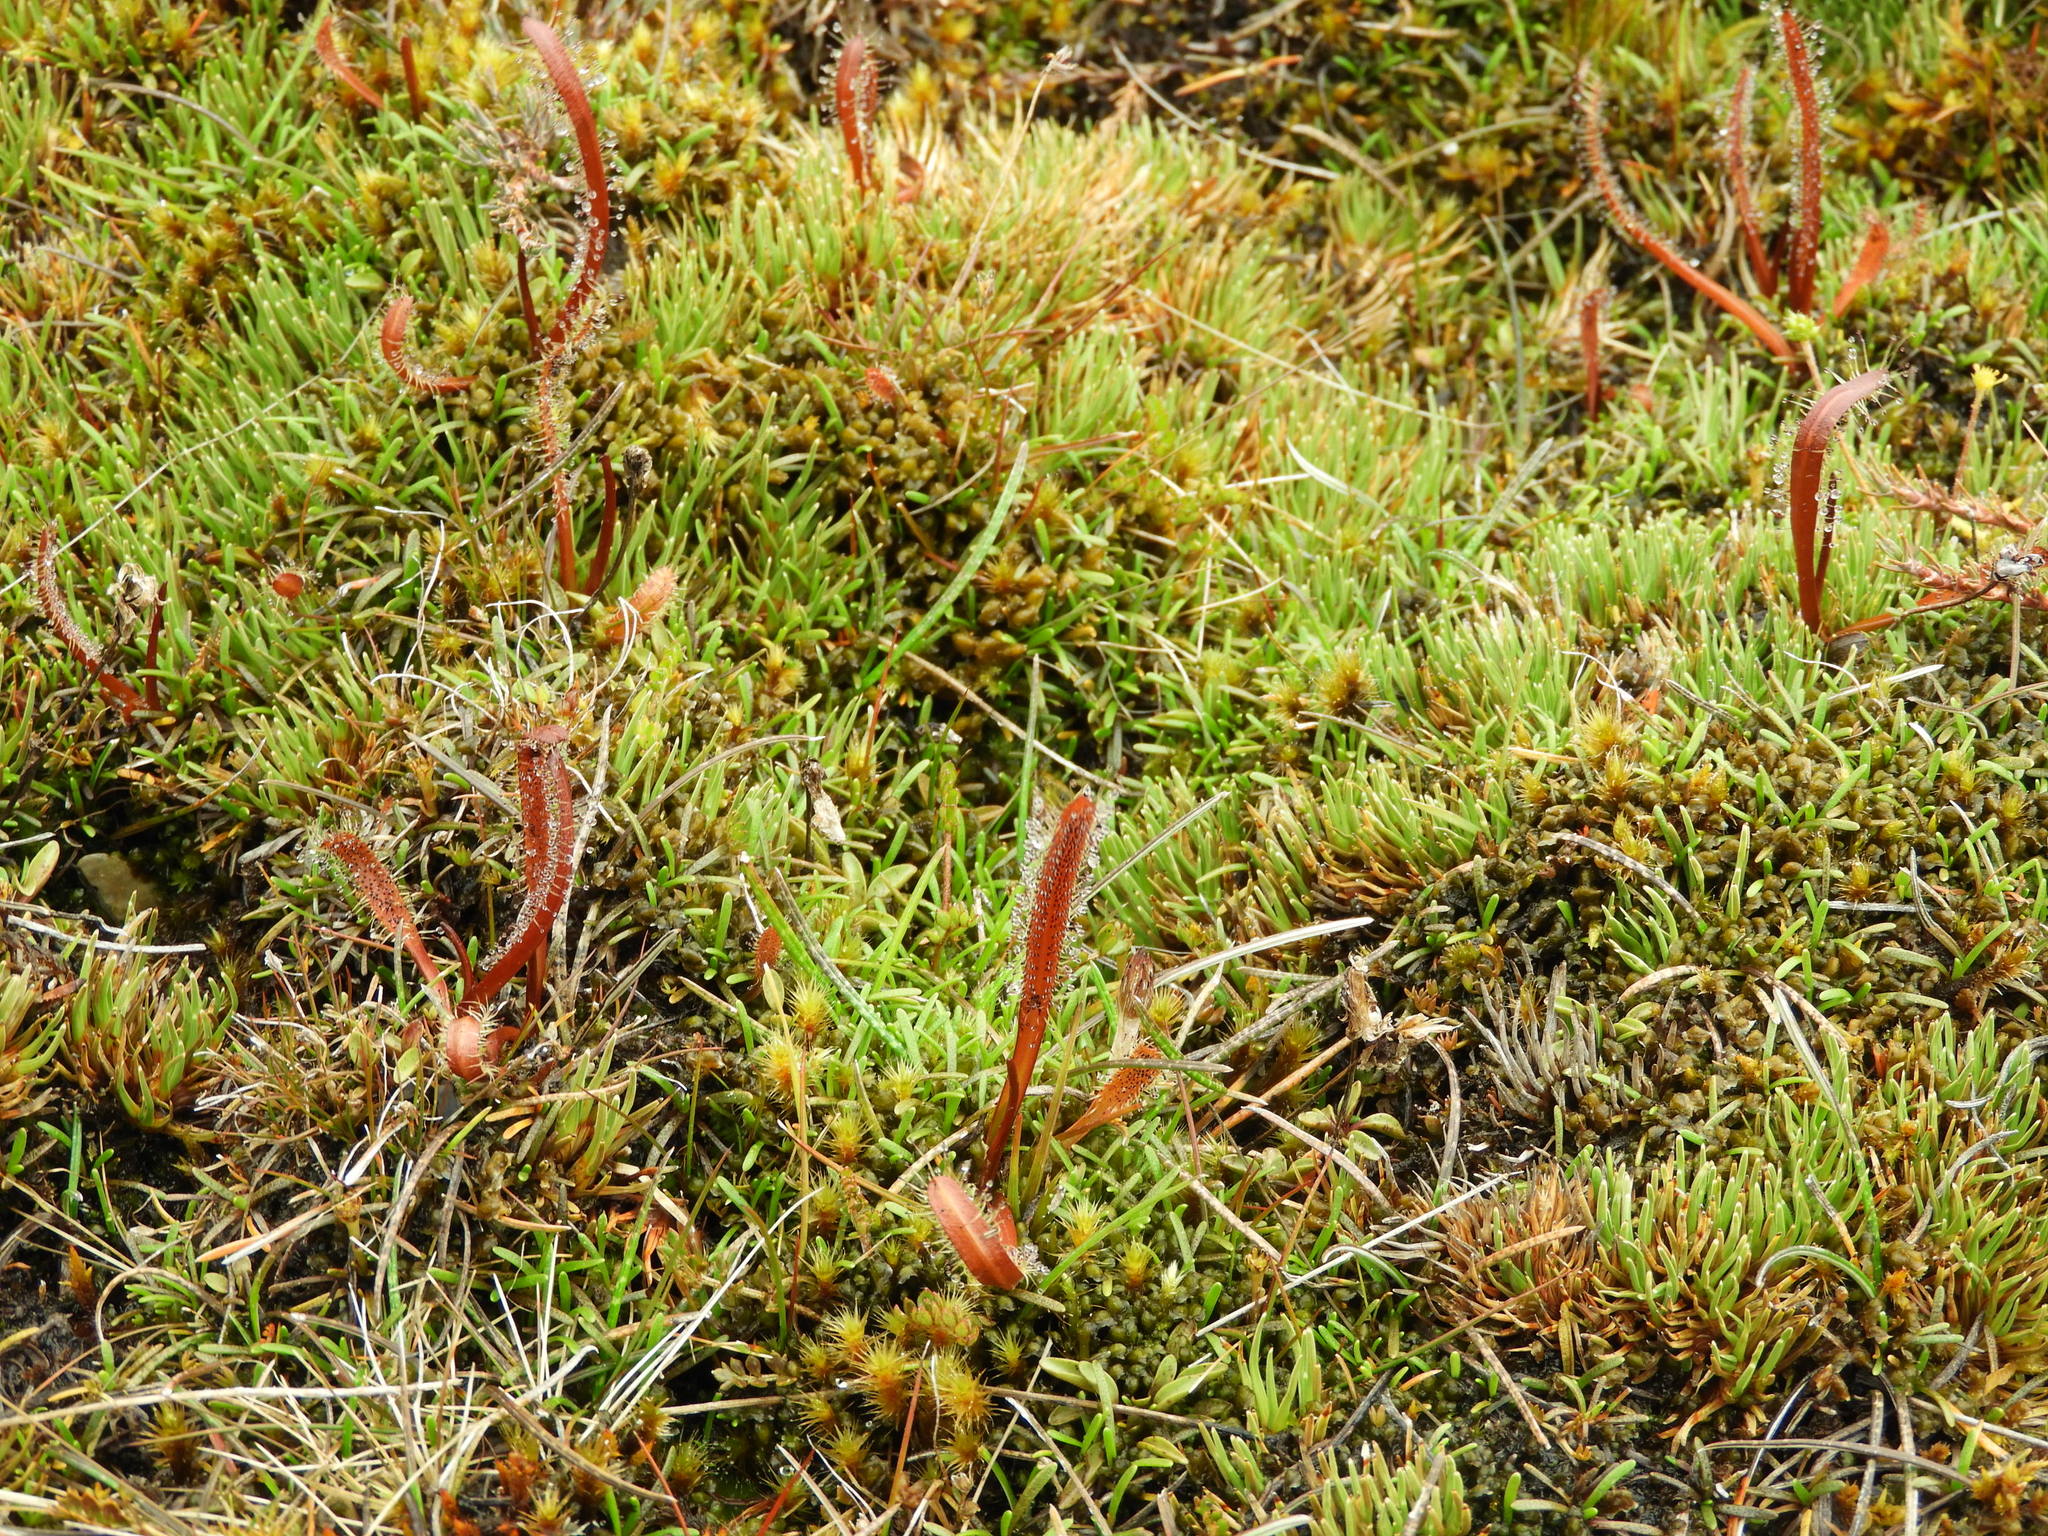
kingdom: Plantae
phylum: Tracheophyta
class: Magnoliopsida
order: Caryophyllales
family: Droseraceae
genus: Drosera
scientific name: Drosera arcturi
